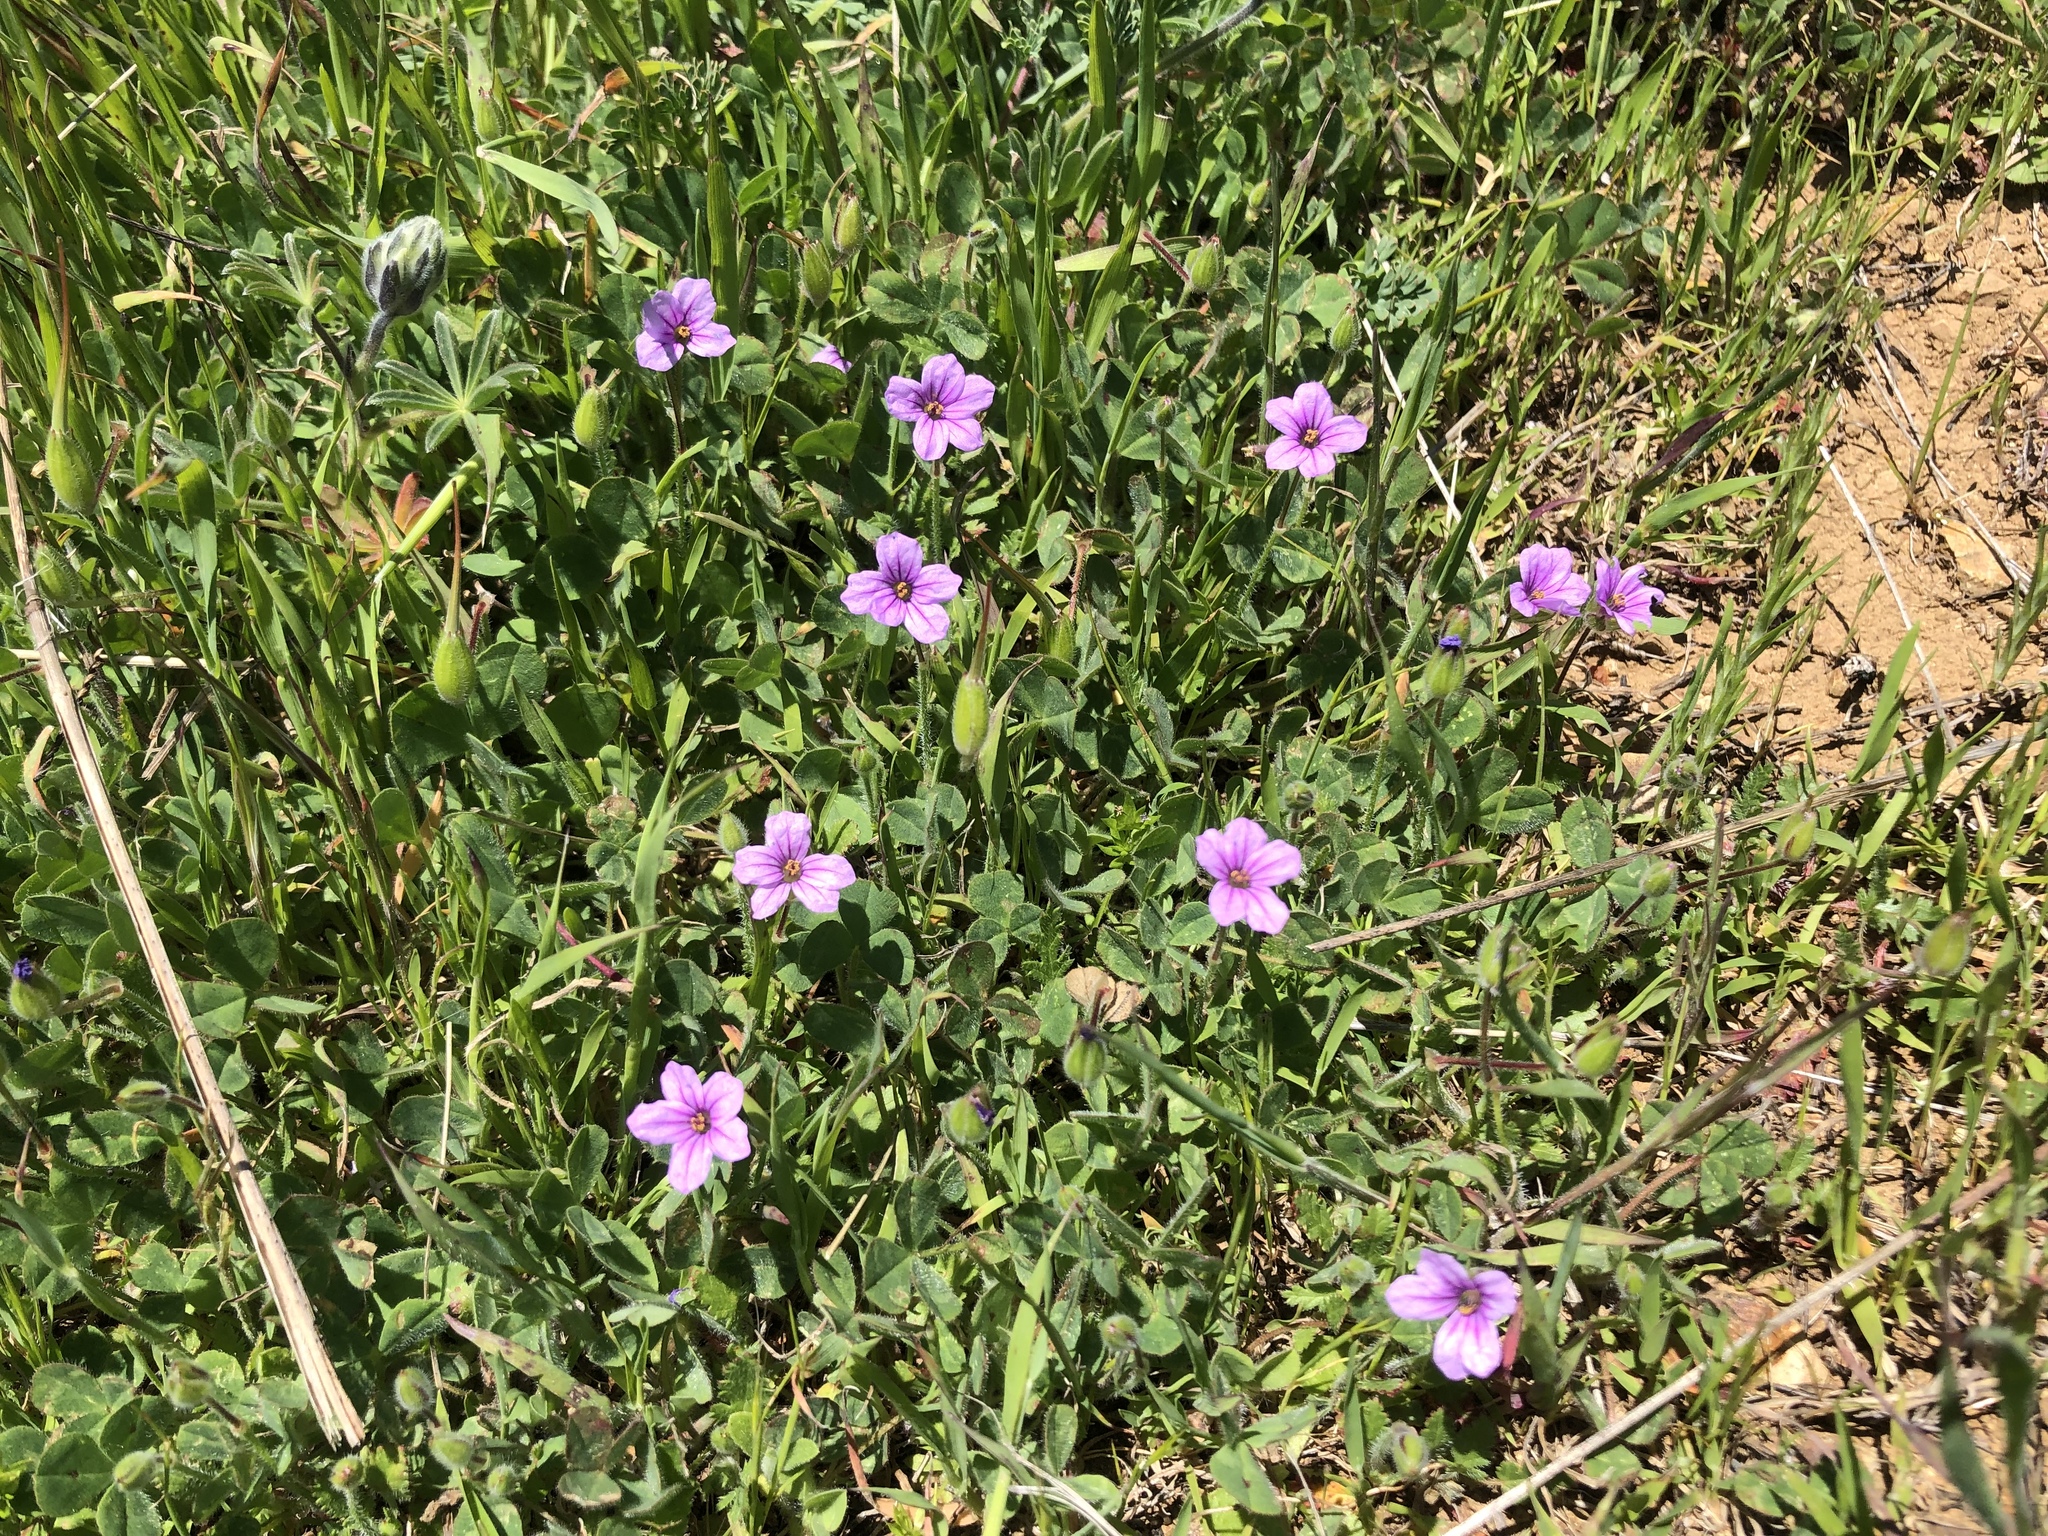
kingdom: Plantae
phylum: Tracheophyta
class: Magnoliopsida
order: Geraniales
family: Geraniaceae
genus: Erodium
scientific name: Erodium botrys
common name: Mediterranean stork's-bill
